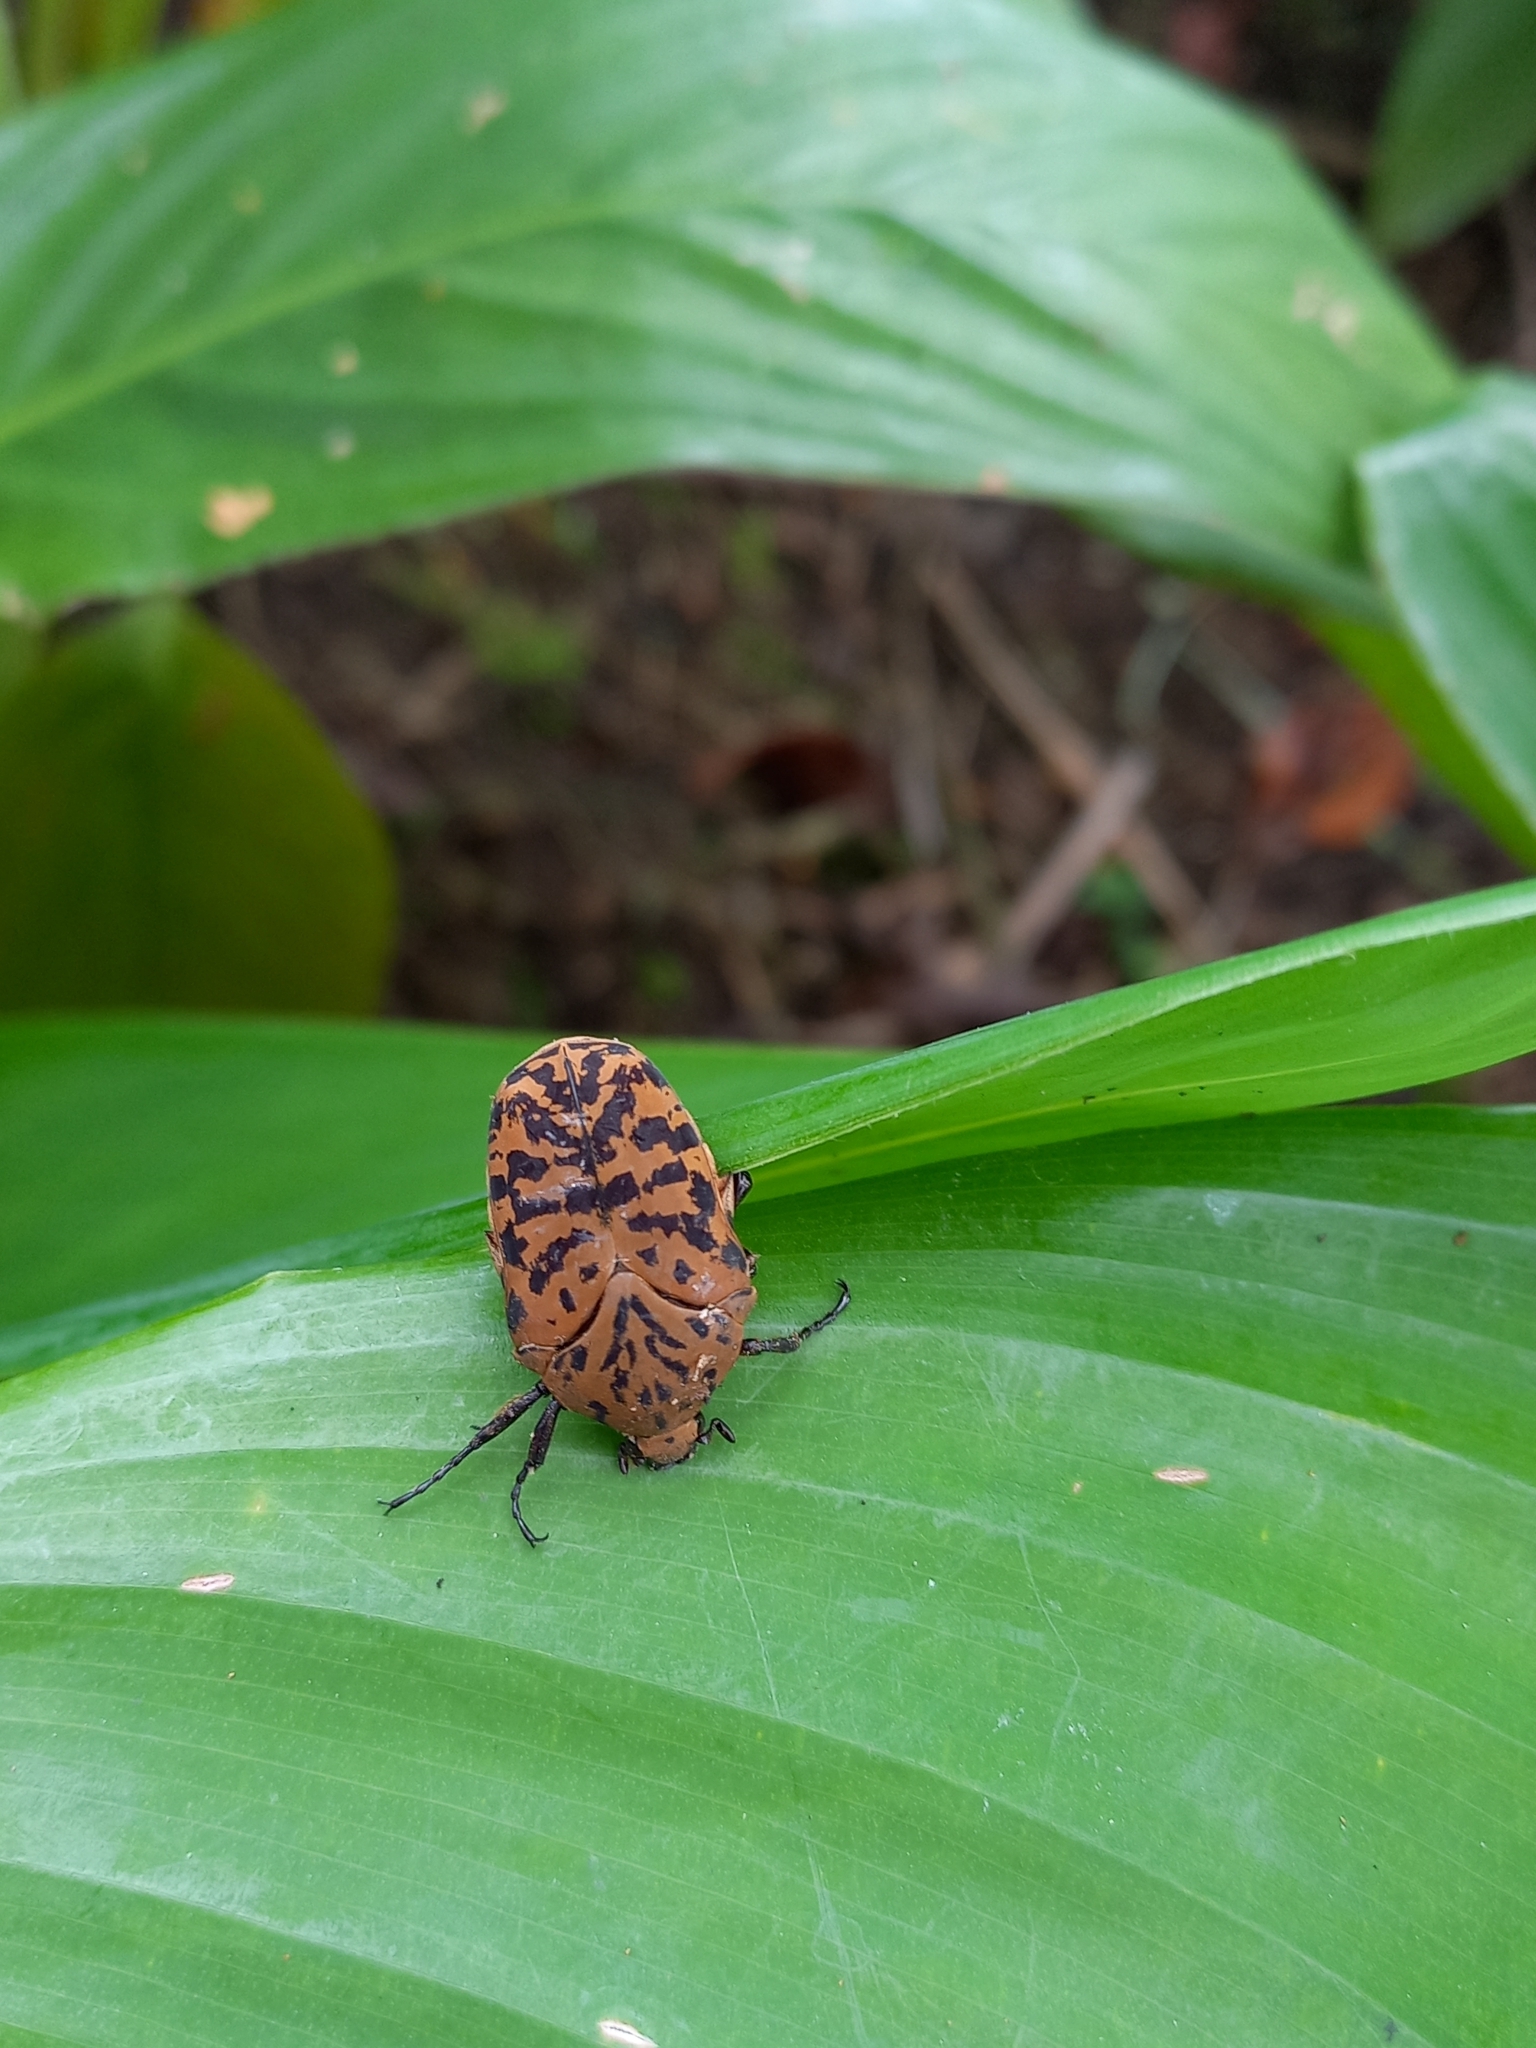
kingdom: Animalia
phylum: Arthropoda
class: Insecta
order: Coleoptera
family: Scarabaeidae
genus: Gymnetis
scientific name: Gymnetis pantherina
